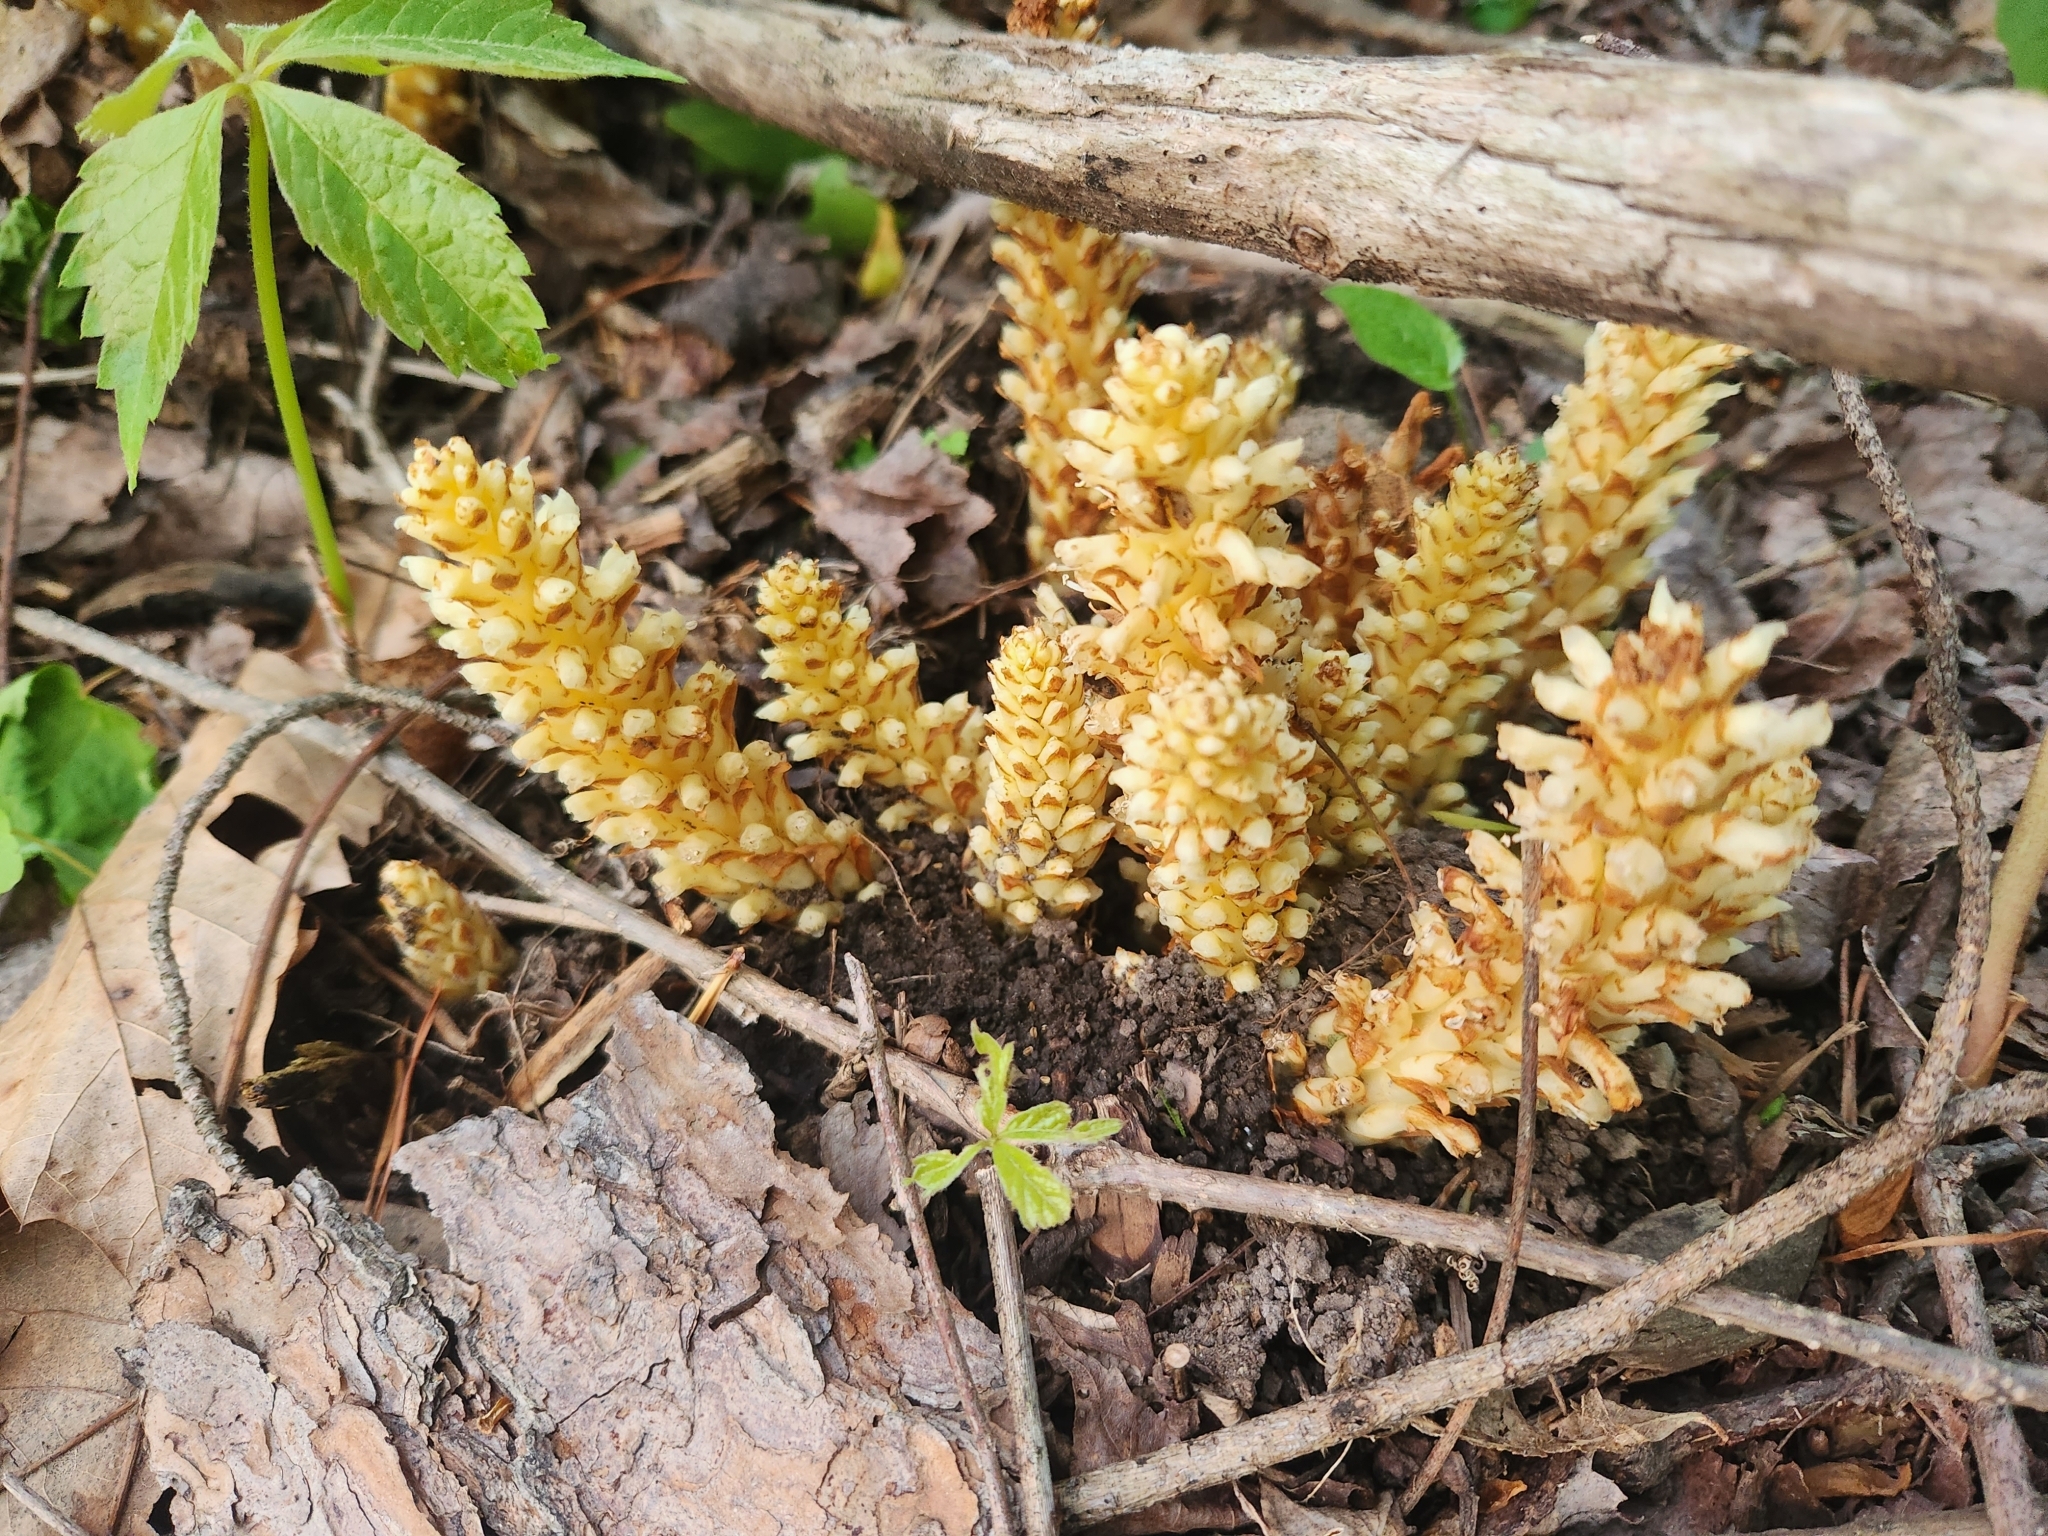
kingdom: Plantae
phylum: Tracheophyta
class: Magnoliopsida
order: Lamiales
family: Orobanchaceae
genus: Conopholis
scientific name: Conopholis americana
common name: American cancer-root
